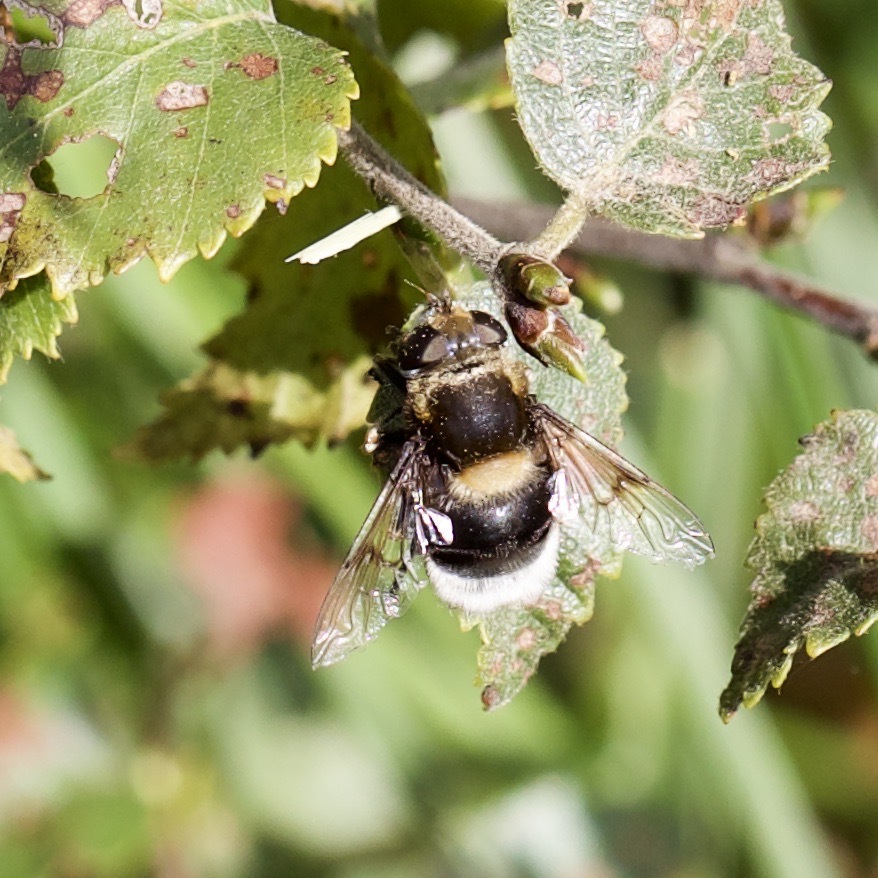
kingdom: Animalia
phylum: Arthropoda
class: Insecta
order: Diptera
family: Syrphidae
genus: Eristalis
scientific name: Eristalis intricaria
